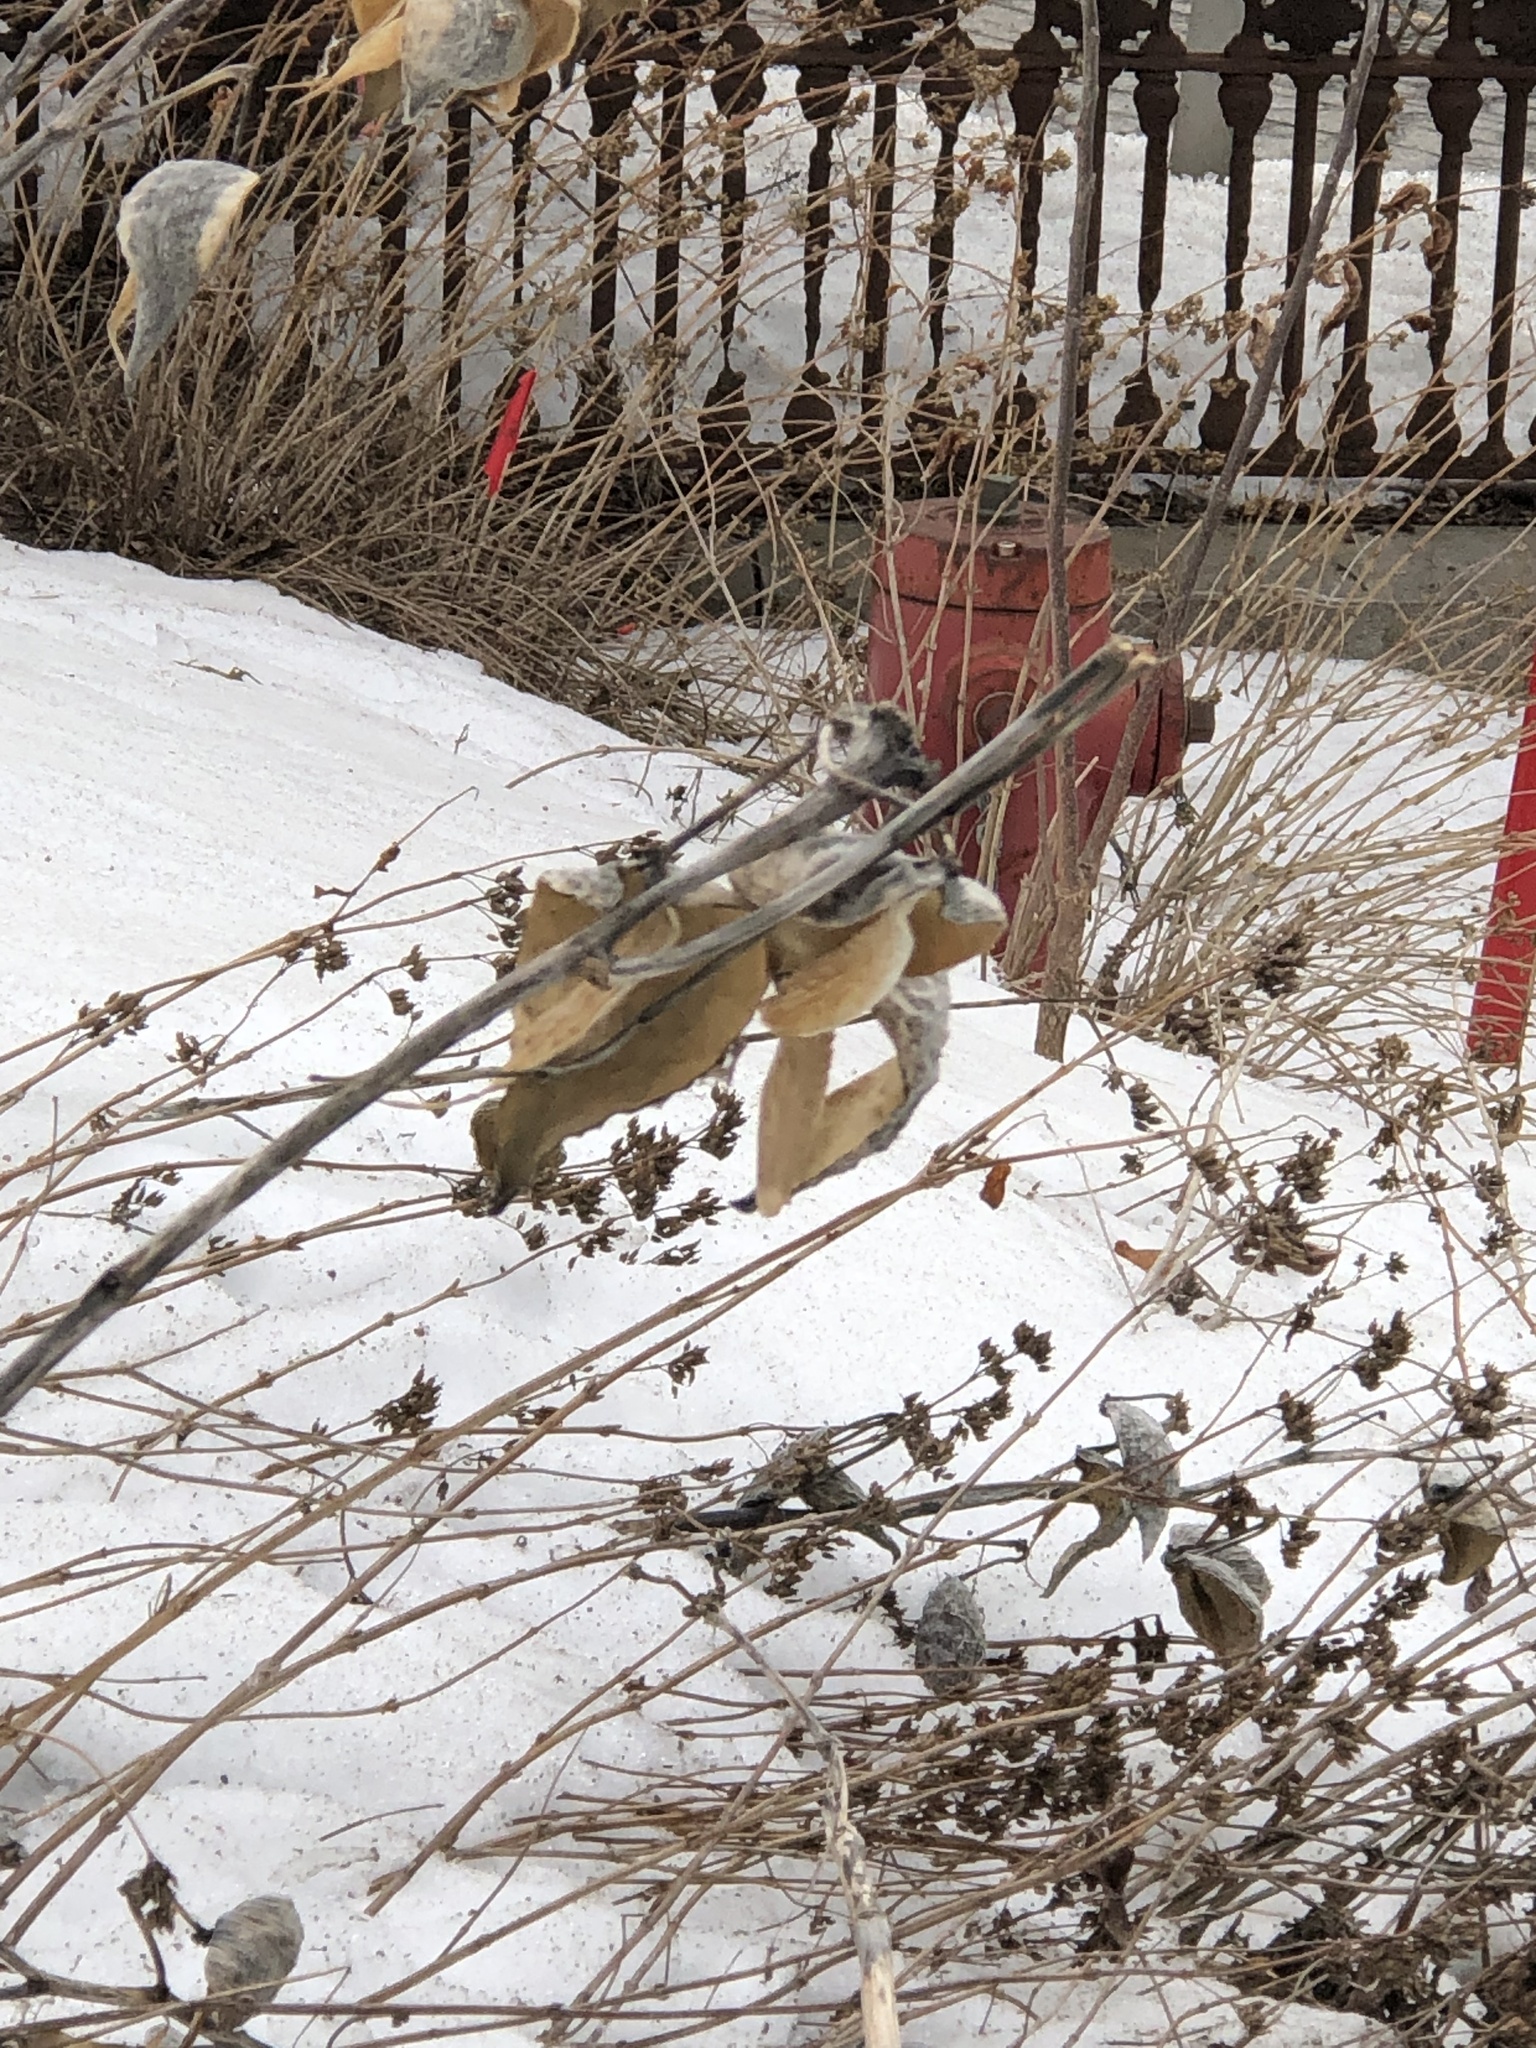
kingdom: Plantae
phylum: Tracheophyta
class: Magnoliopsida
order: Gentianales
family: Apocynaceae
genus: Asclepias
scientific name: Asclepias syriaca
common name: Common milkweed
